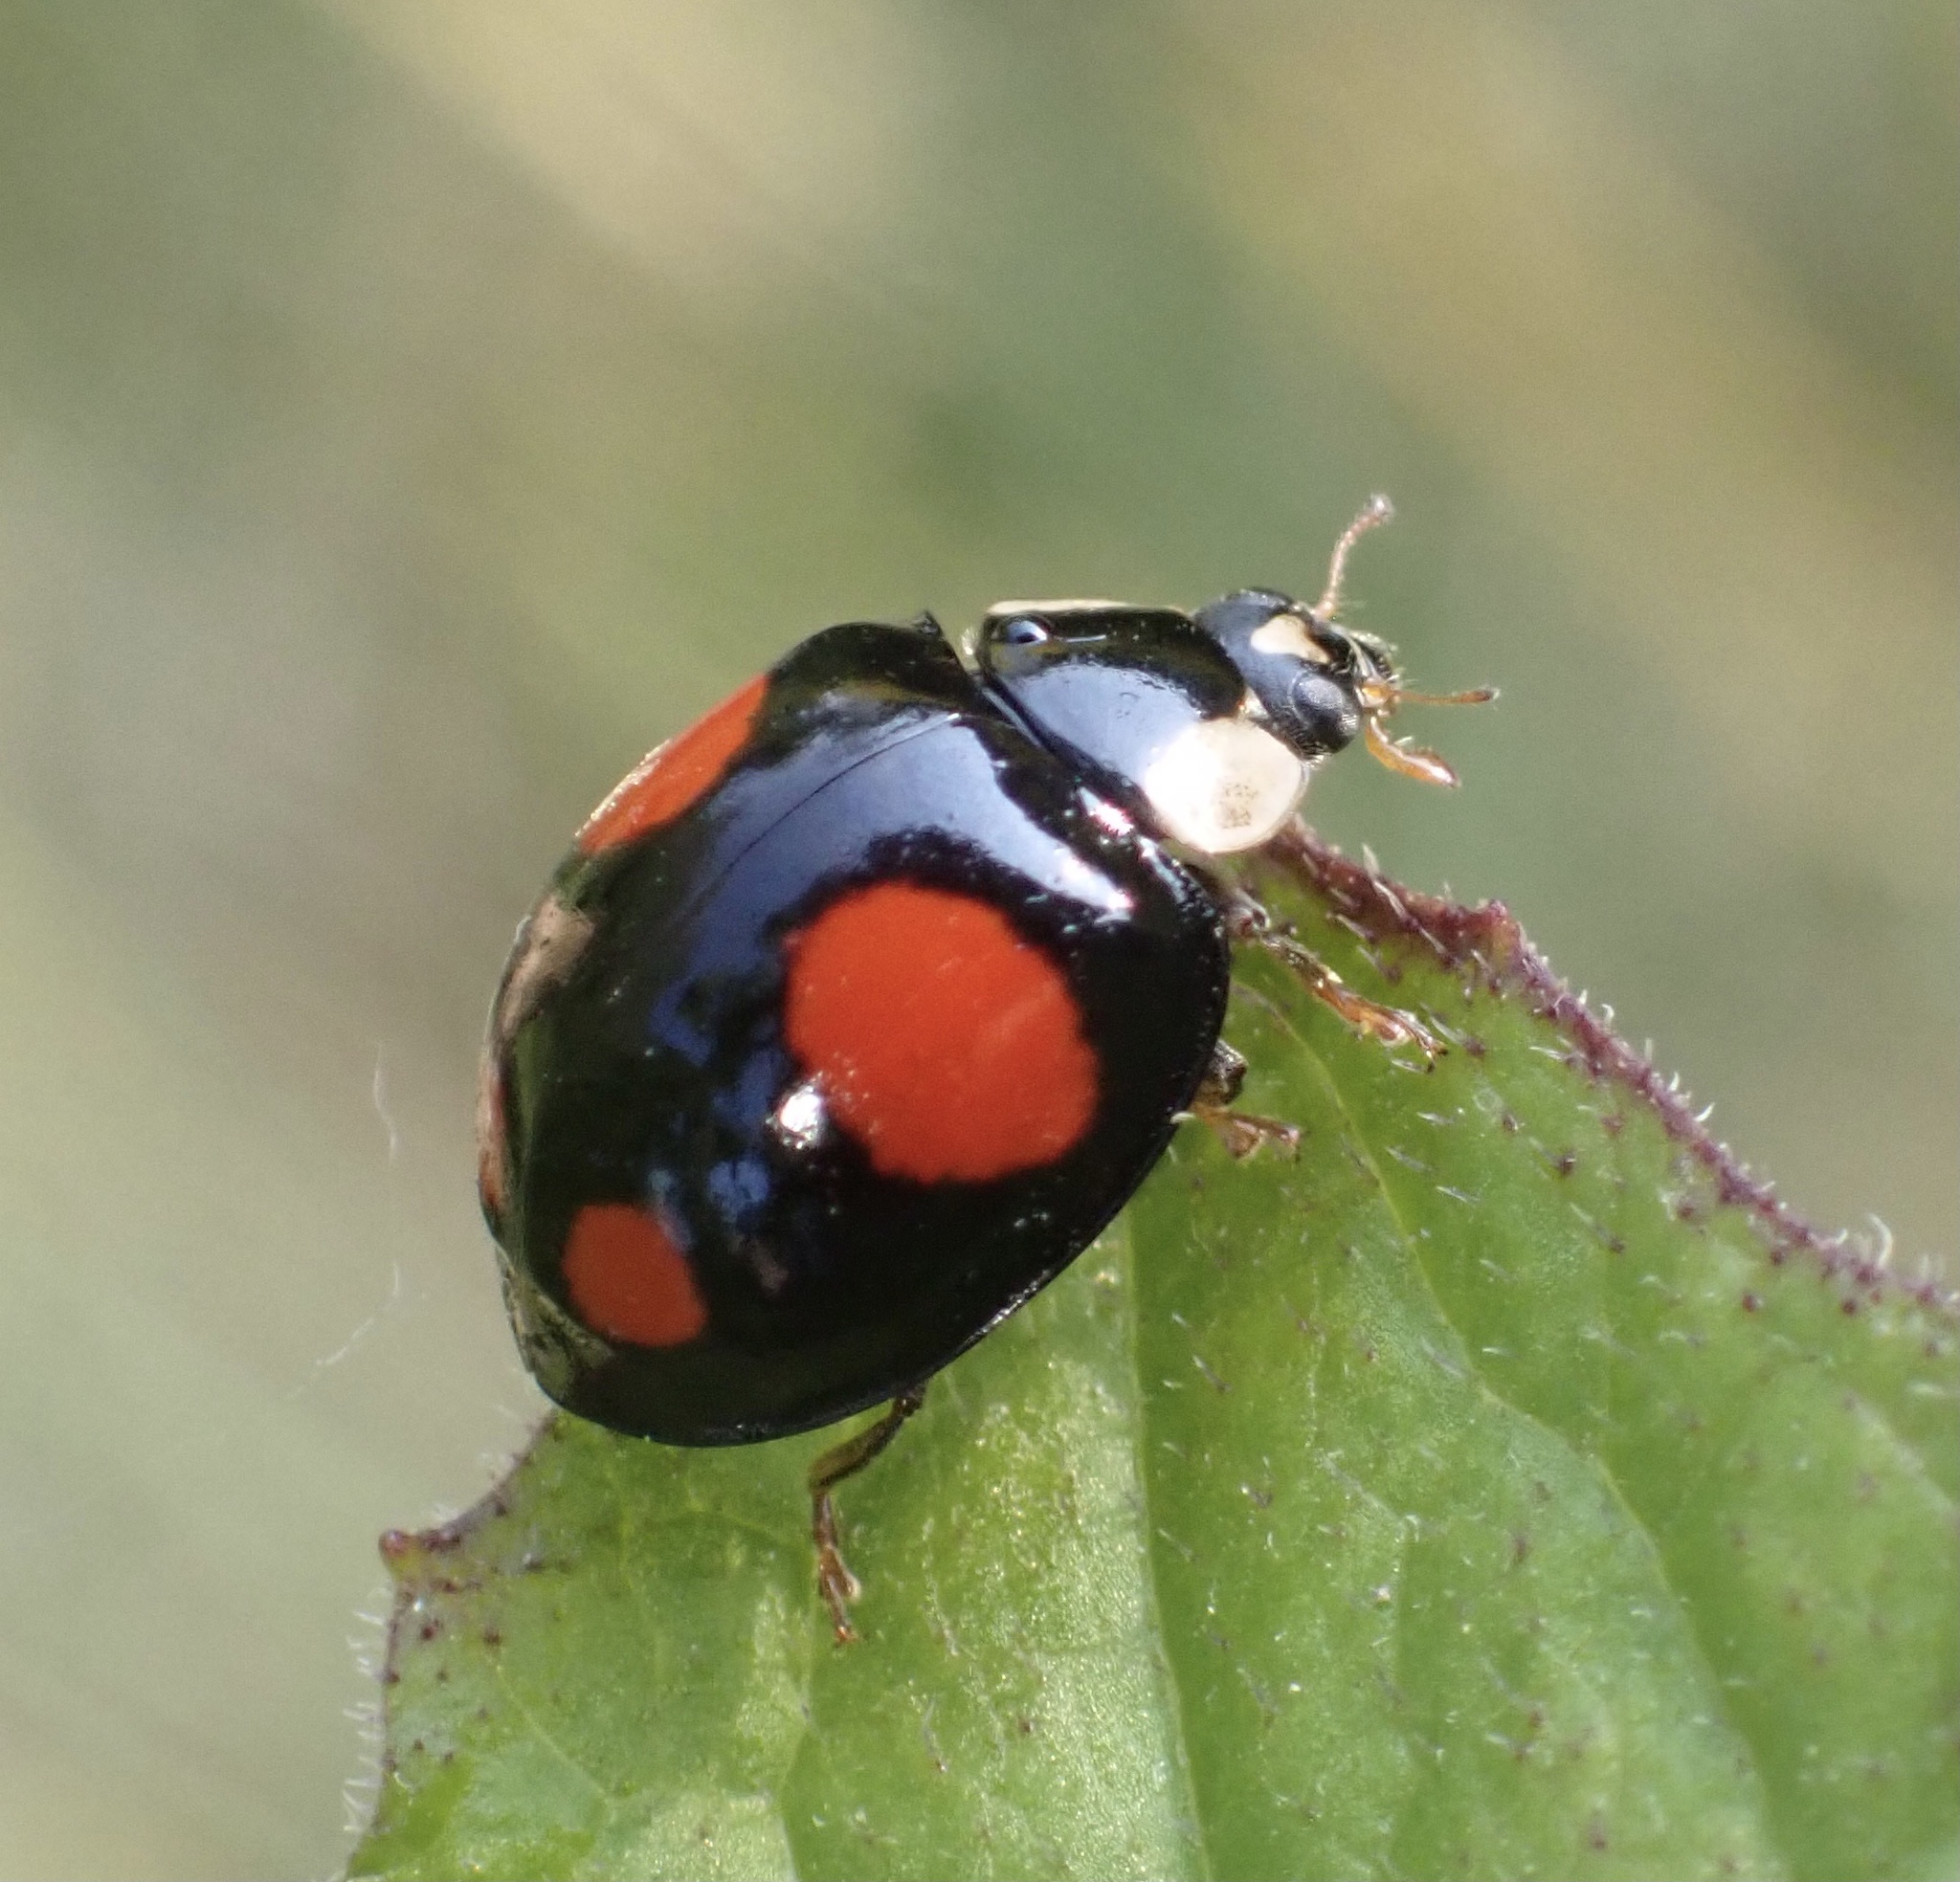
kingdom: Animalia
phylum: Arthropoda
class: Insecta
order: Coleoptera
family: Coccinellidae
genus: Harmonia
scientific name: Harmonia axyridis
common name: Harlequin ladybird
